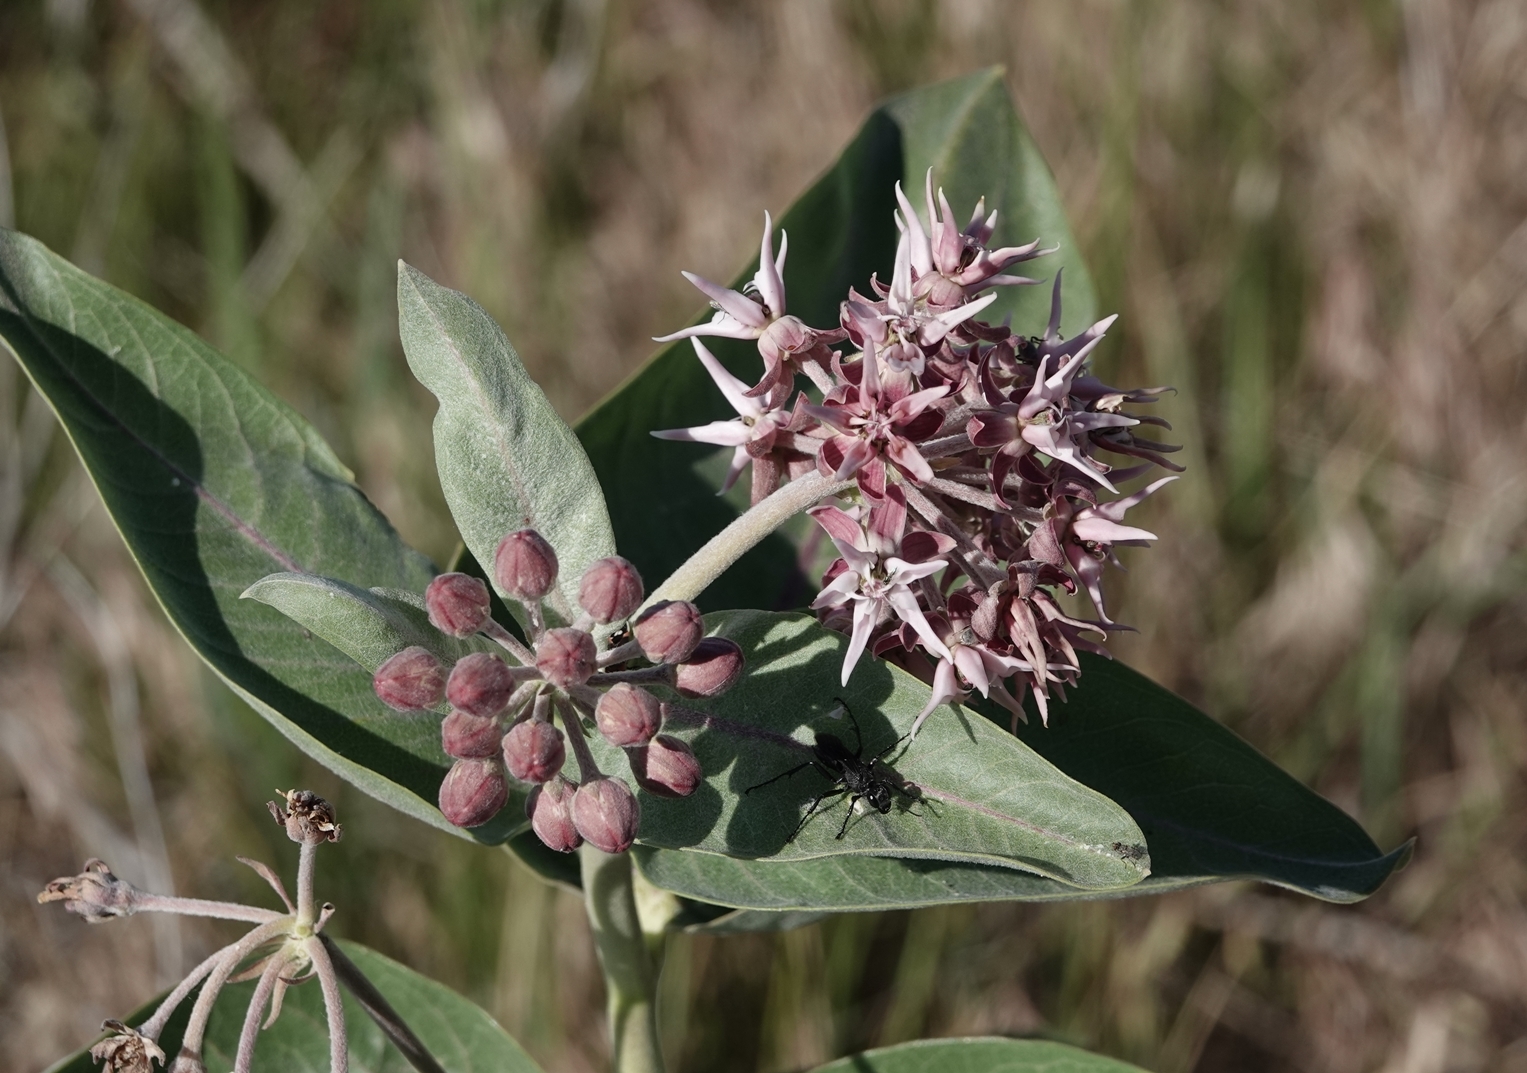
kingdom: Plantae
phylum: Tracheophyta
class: Magnoliopsida
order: Gentianales
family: Apocynaceae
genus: Asclepias
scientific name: Asclepias speciosa
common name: Showy milkweed
